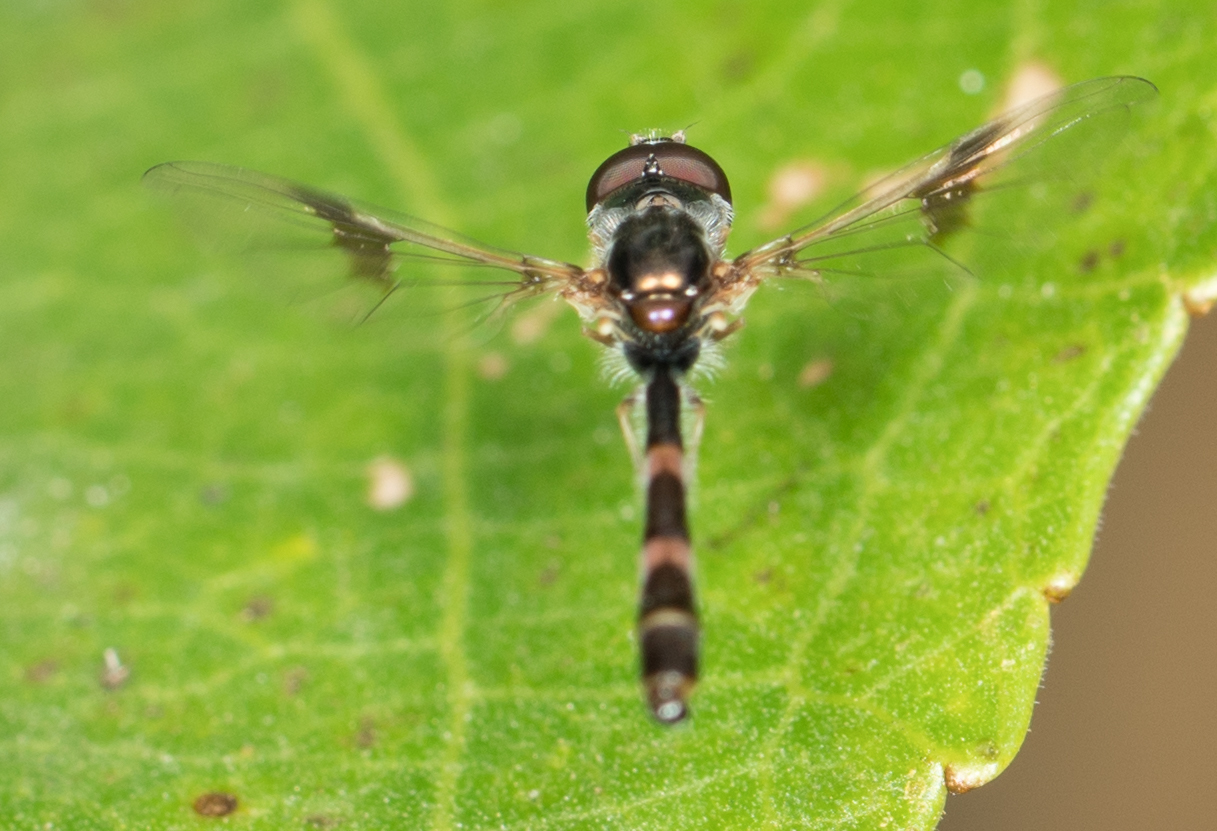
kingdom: Animalia
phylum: Arthropoda
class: Insecta
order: Diptera
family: Syrphidae
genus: Hypocritanus
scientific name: Hypocritanus lemur
